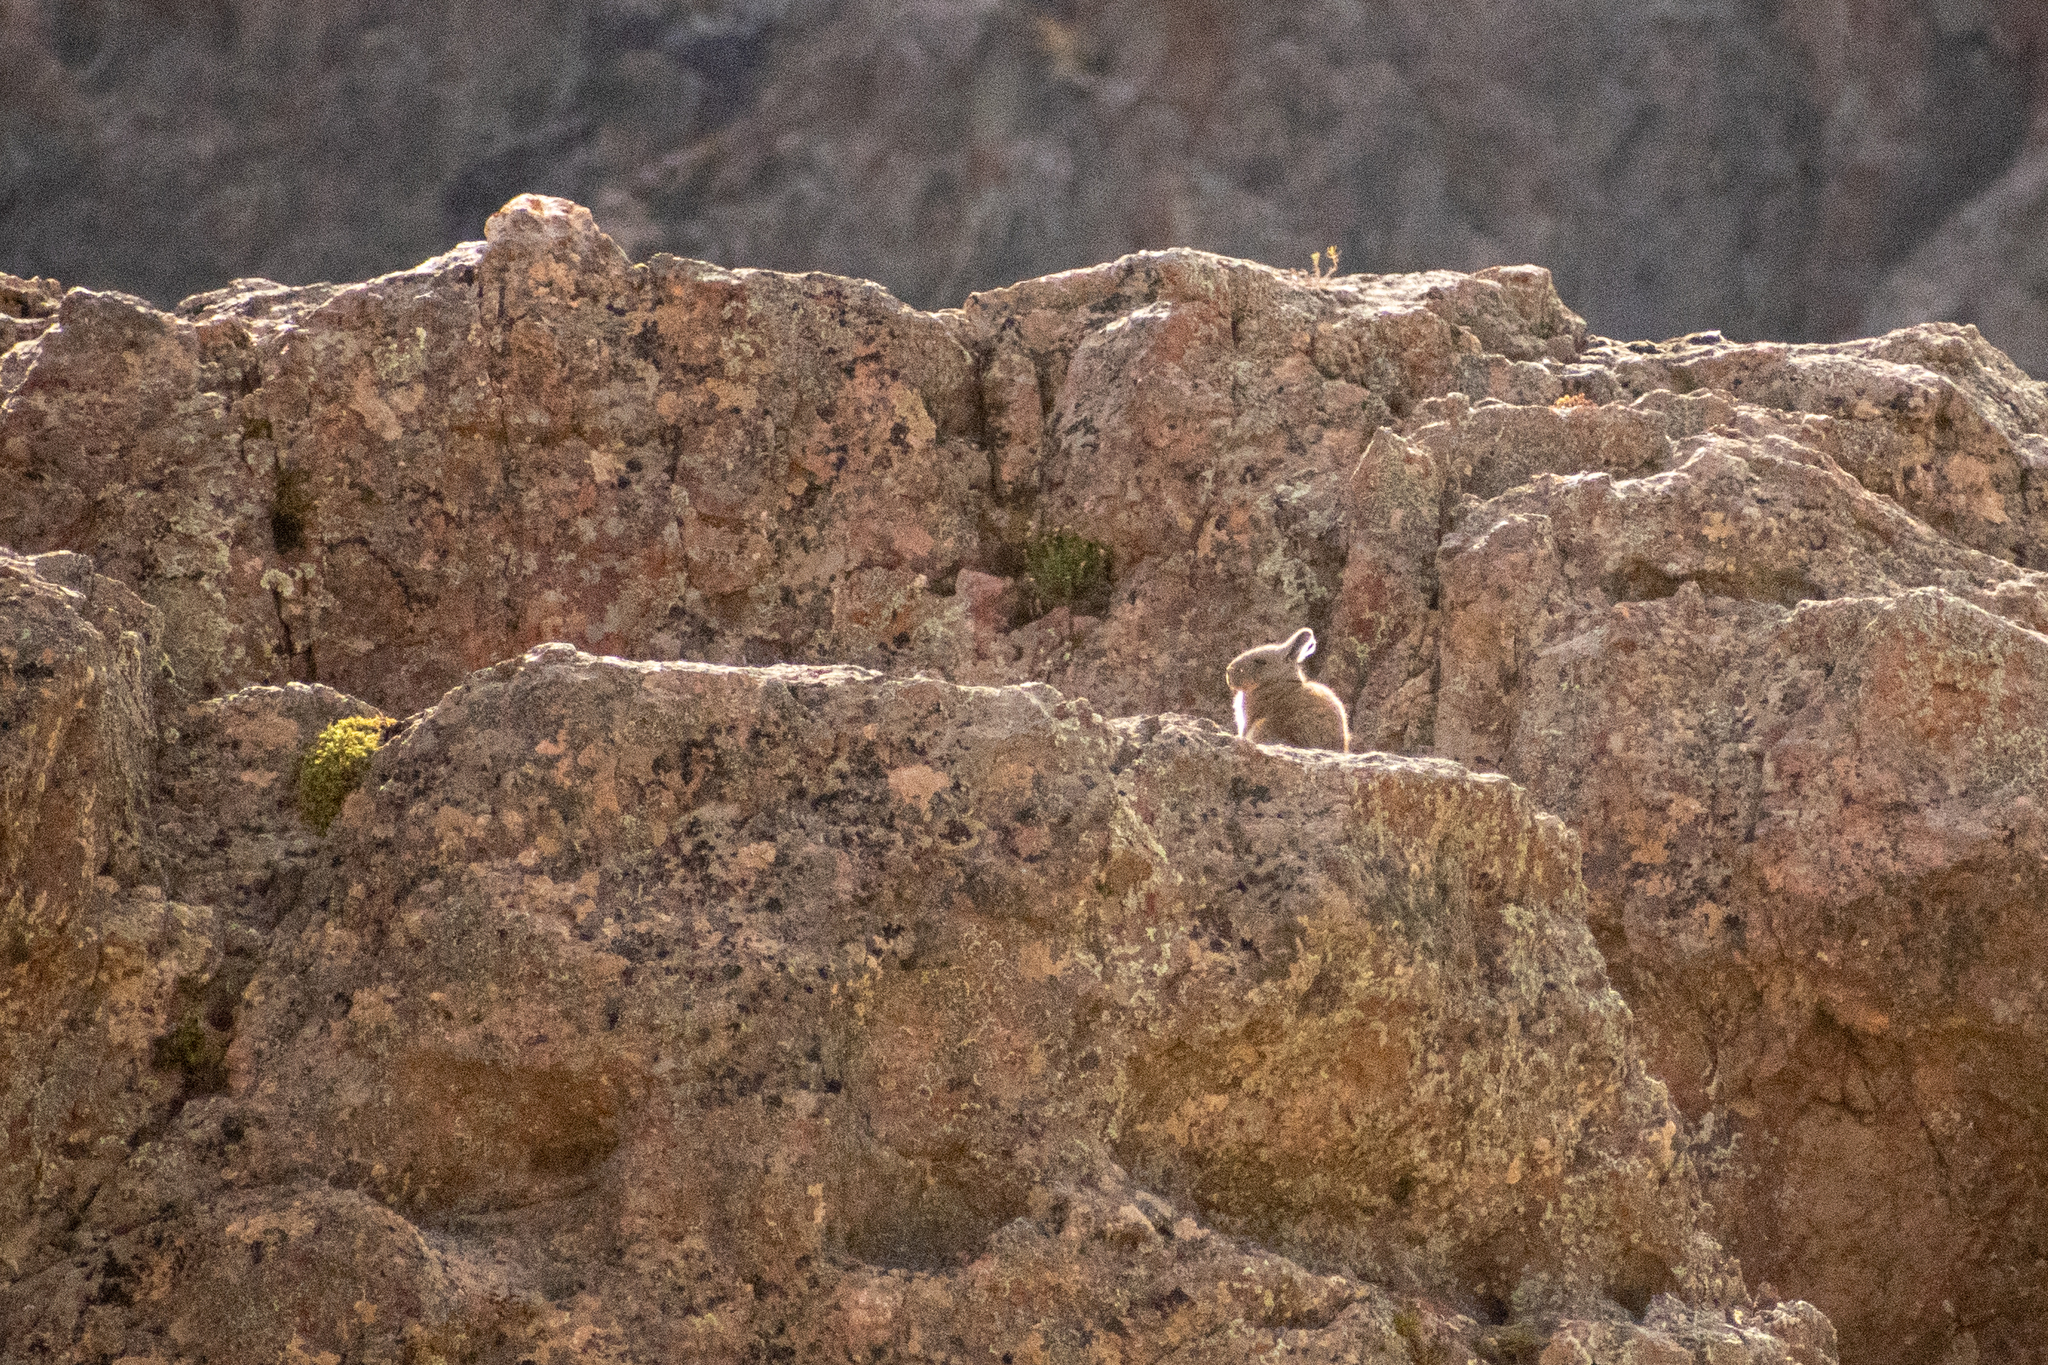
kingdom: Animalia
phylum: Chordata
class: Mammalia
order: Rodentia
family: Chinchillidae
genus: Lagidium
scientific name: Lagidium viscacia
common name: Southern viscacha
